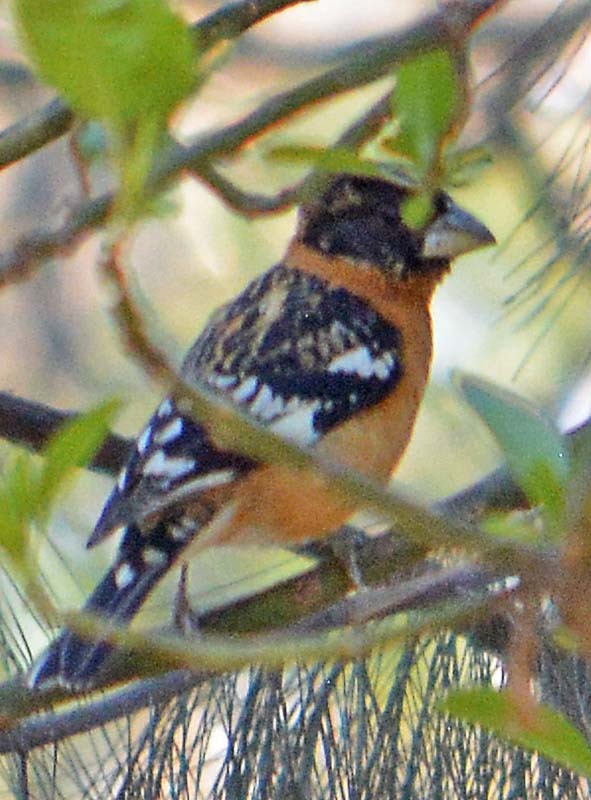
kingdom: Animalia
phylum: Chordata
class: Aves
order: Passeriformes
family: Cardinalidae
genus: Pheucticus
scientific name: Pheucticus melanocephalus
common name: Black-headed grosbeak
